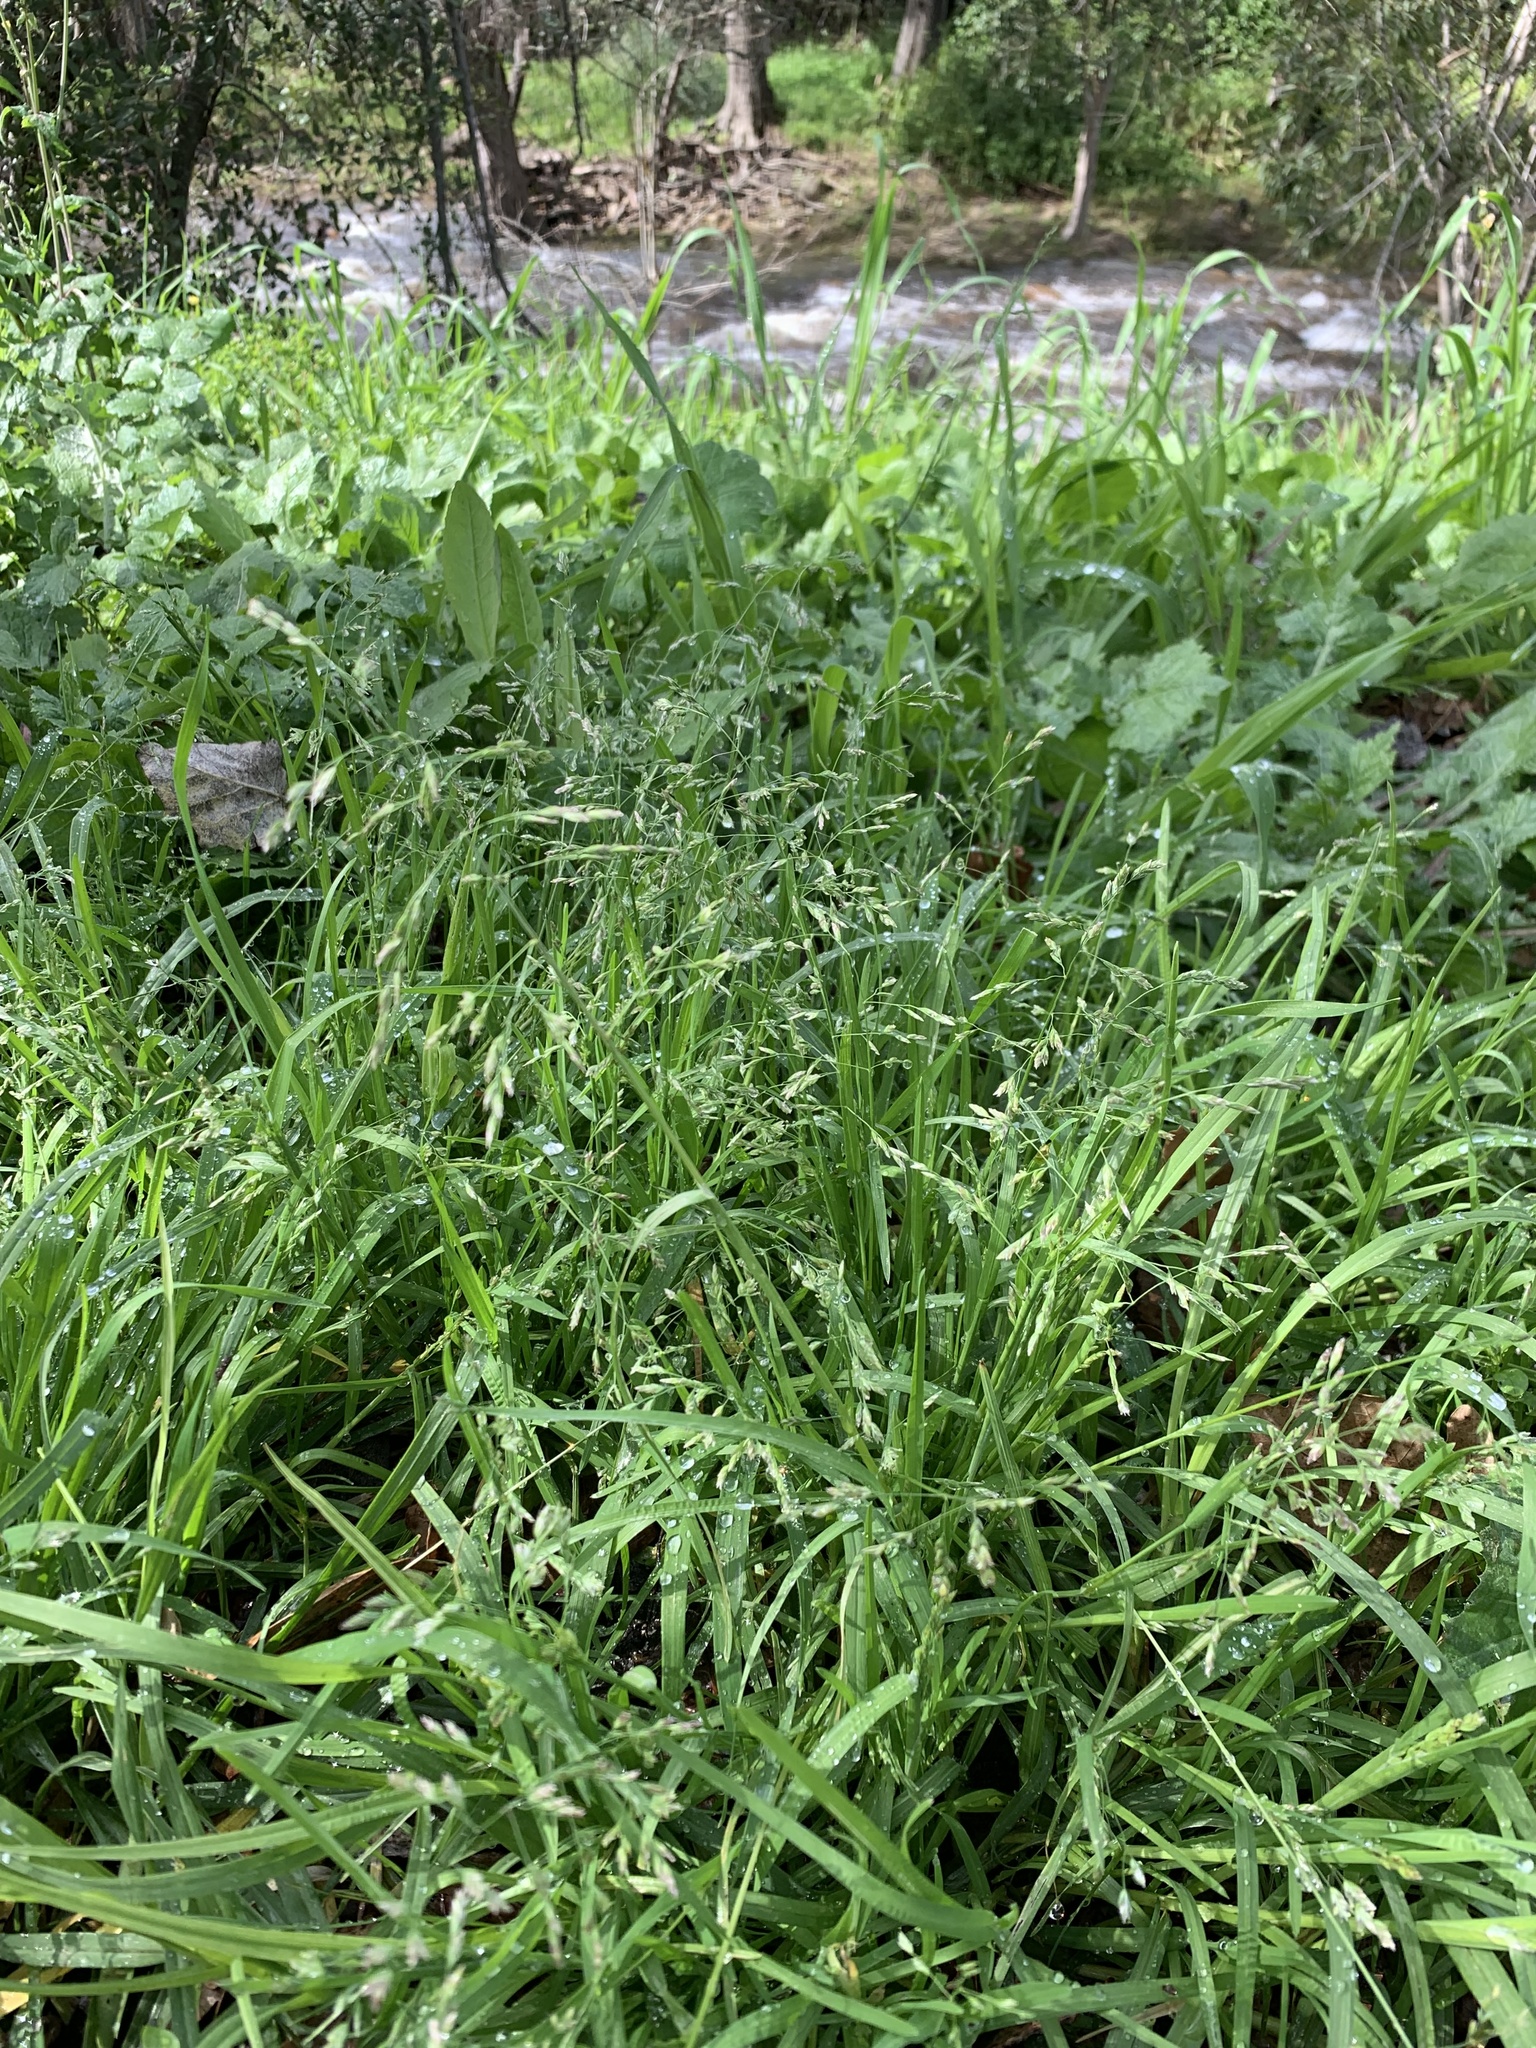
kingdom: Plantae
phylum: Tracheophyta
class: Liliopsida
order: Poales
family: Poaceae
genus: Poa
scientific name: Poa annua
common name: Annual bluegrass
